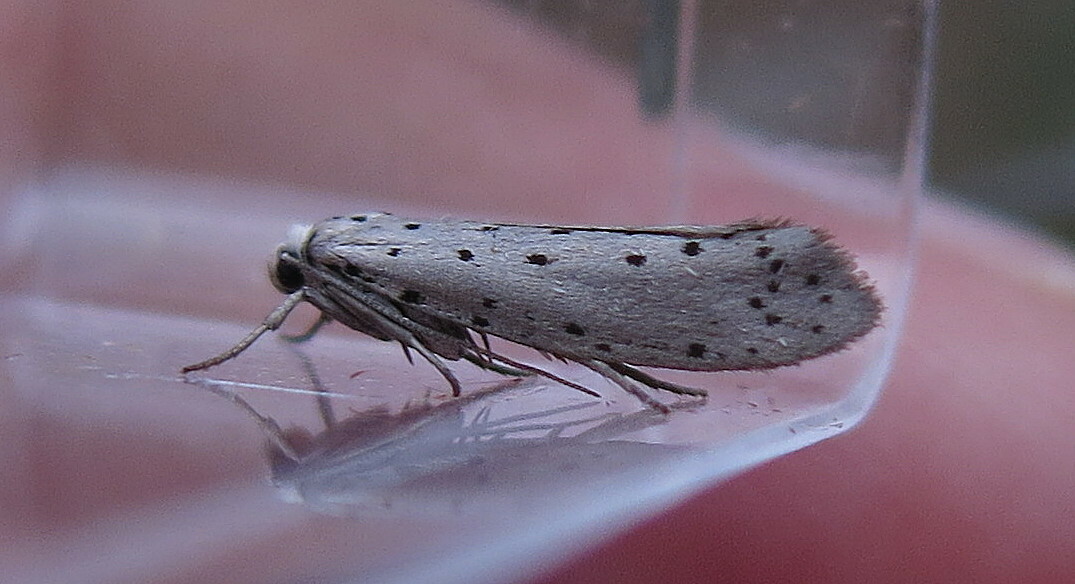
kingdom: Animalia
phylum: Arthropoda
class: Insecta
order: Lepidoptera
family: Yponomeutidae
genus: Yponomeuta
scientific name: Yponomeuta padella
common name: Orchard ermine
